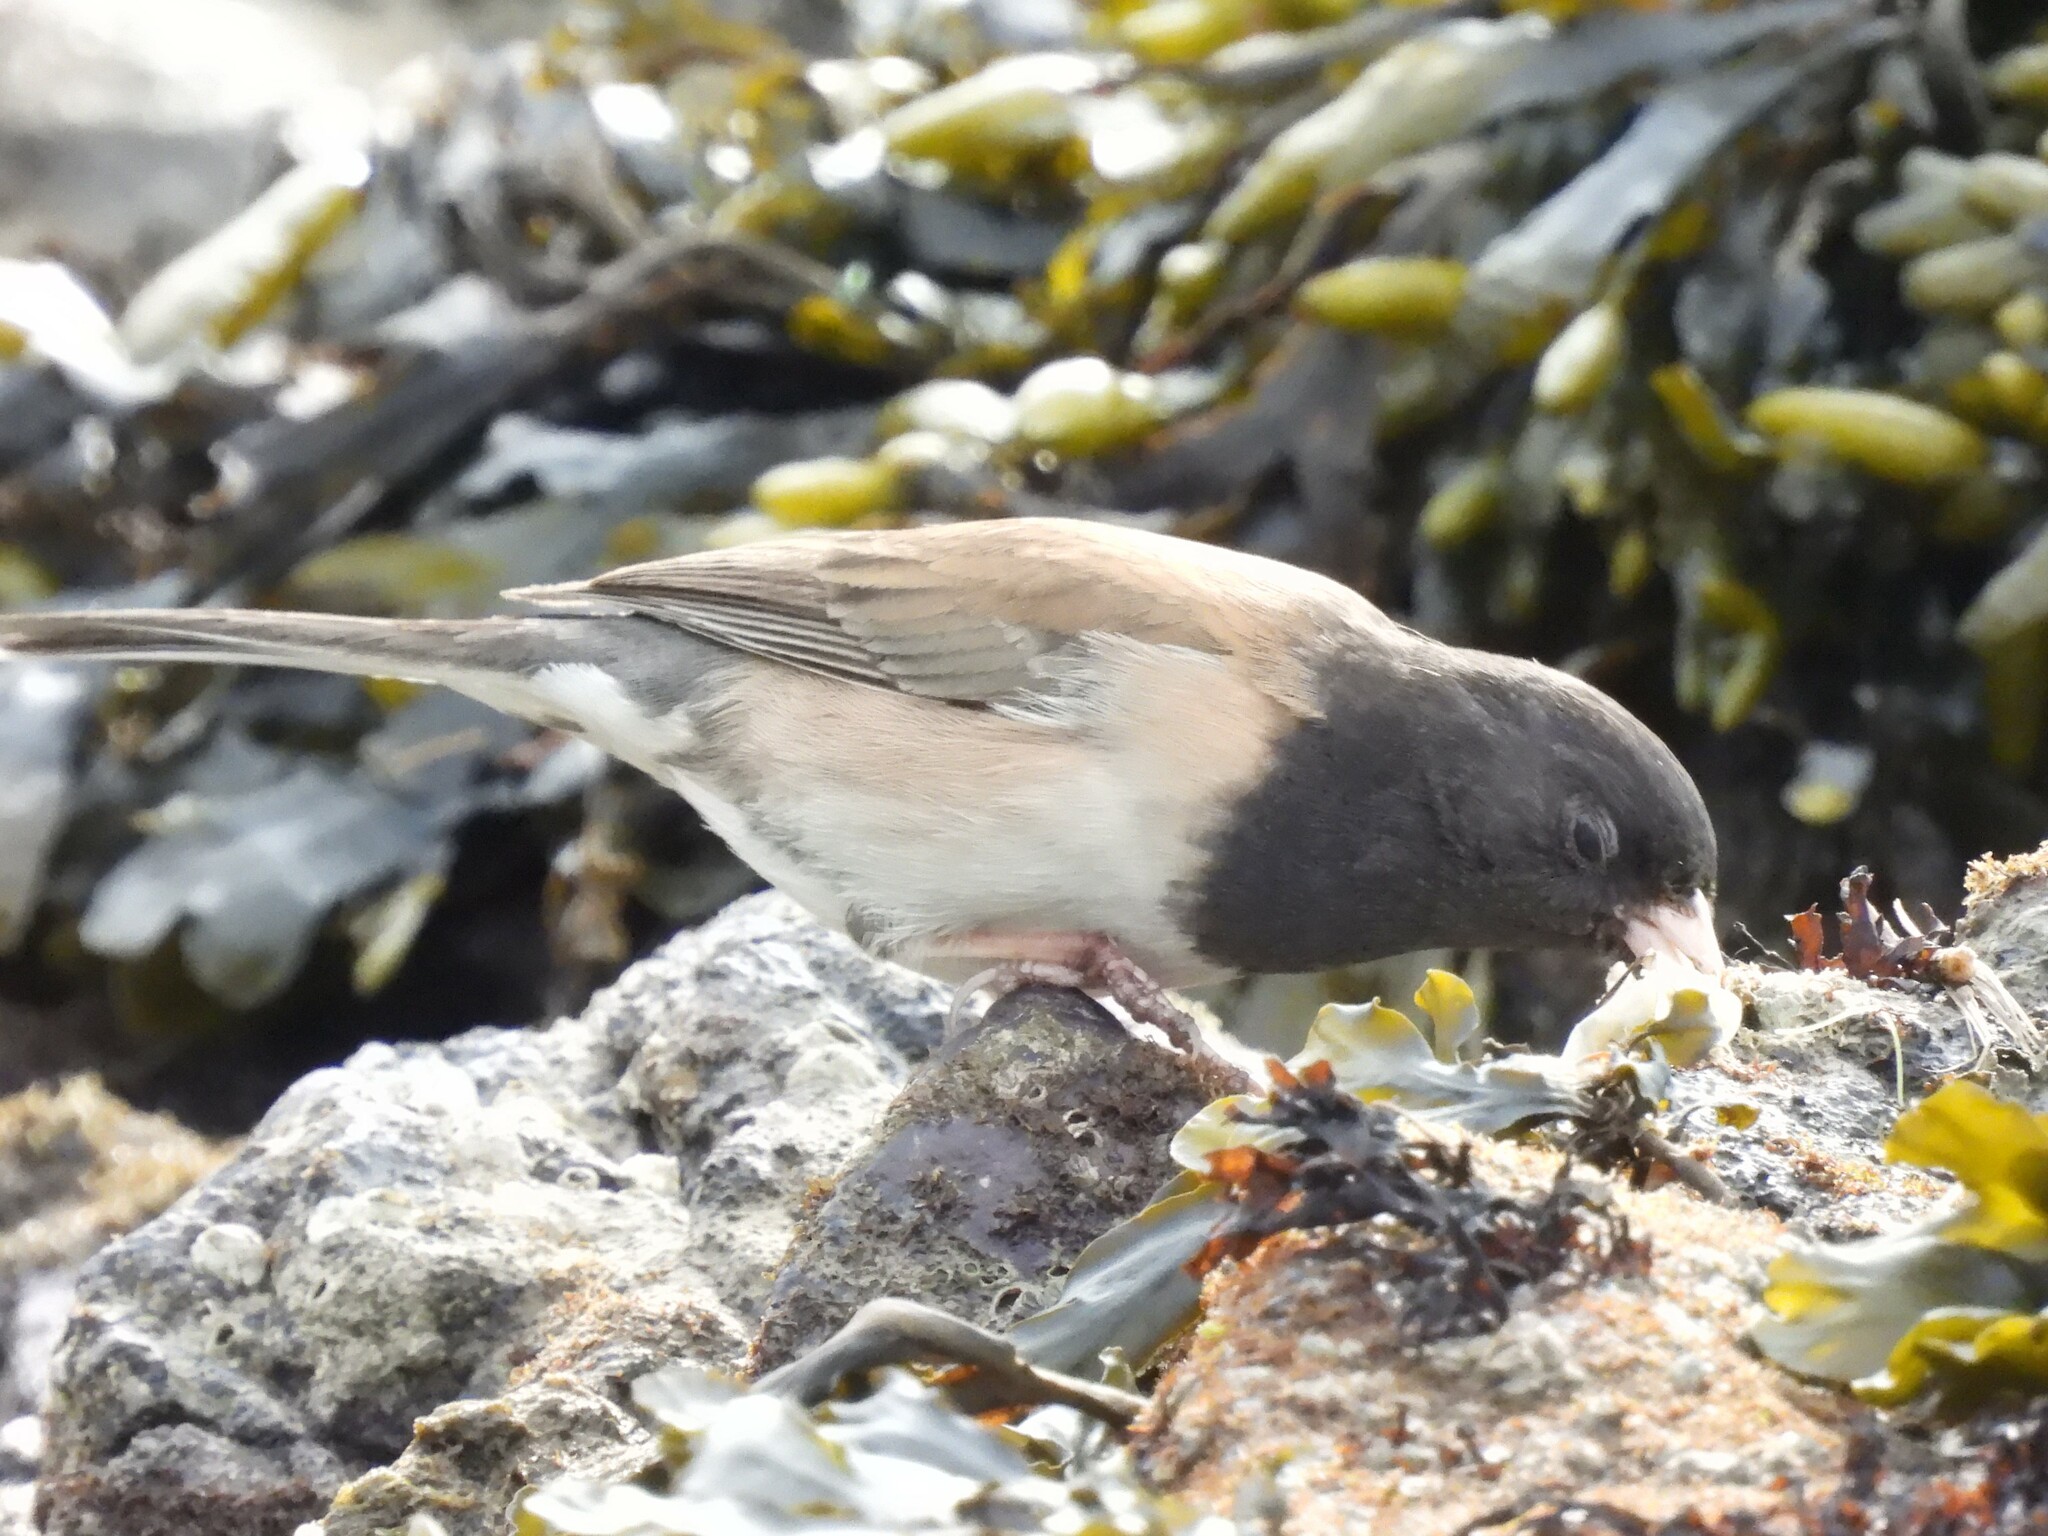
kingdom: Animalia
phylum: Chordata
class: Aves
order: Passeriformes
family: Passerellidae
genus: Junco
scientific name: Junco hyemalis
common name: Dark-eyed junco
